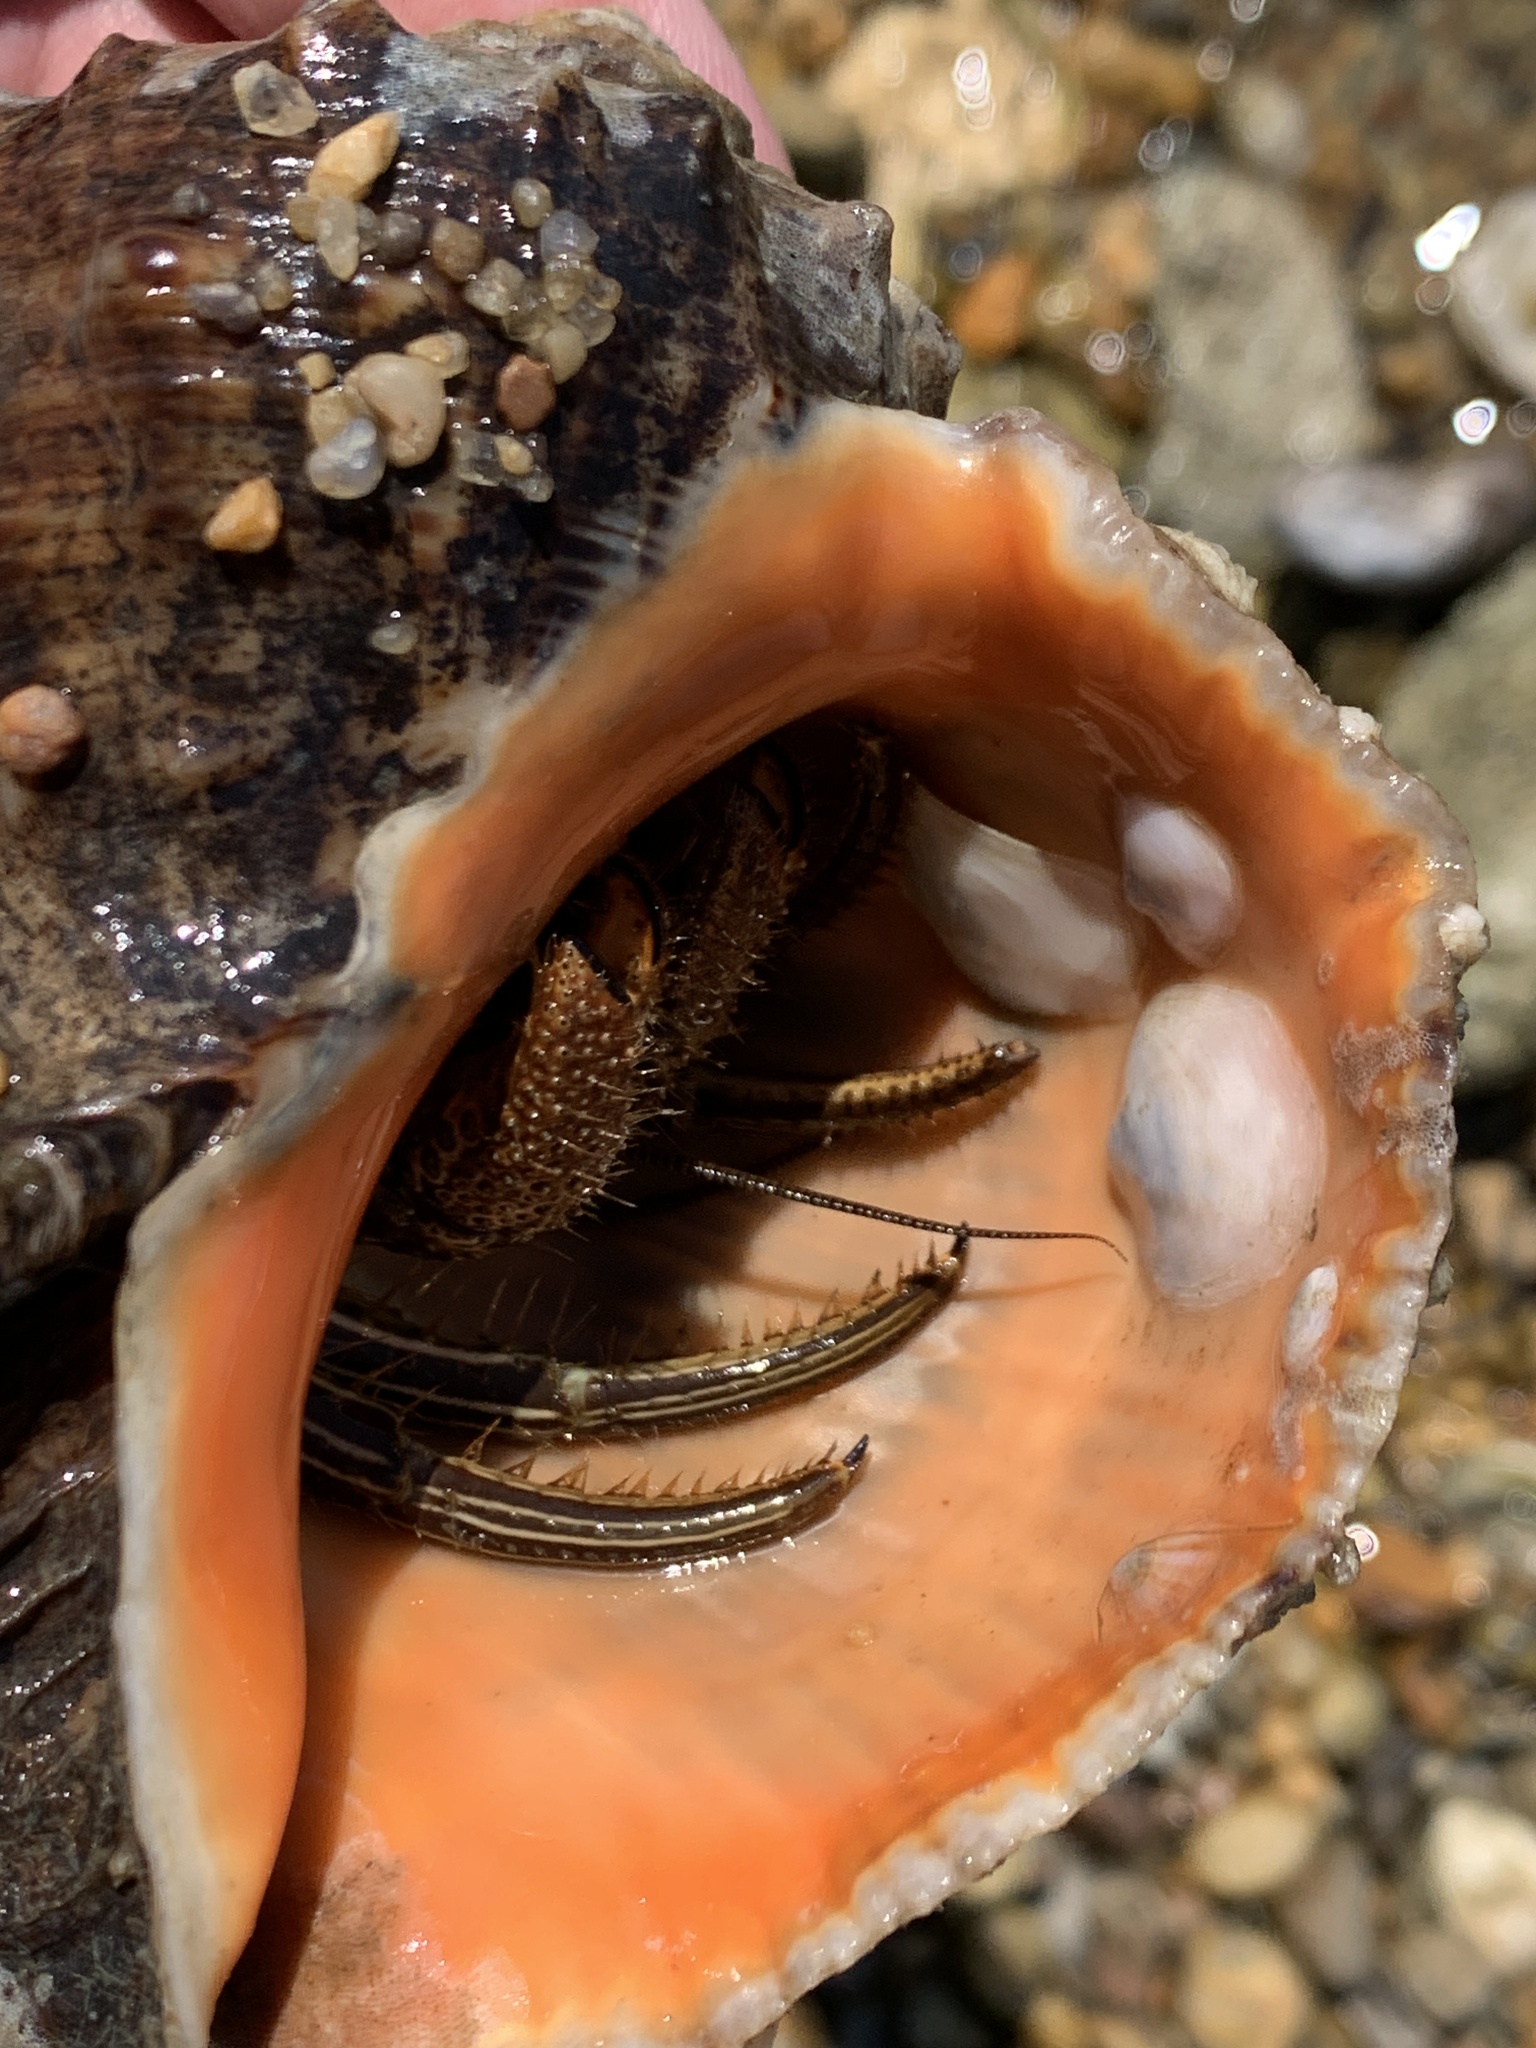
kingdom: Animalia
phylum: Arthropoda
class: Malacostraca
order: Decapoda
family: Diogenidae
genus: Clibanarius
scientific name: Clibanarius vittatus
